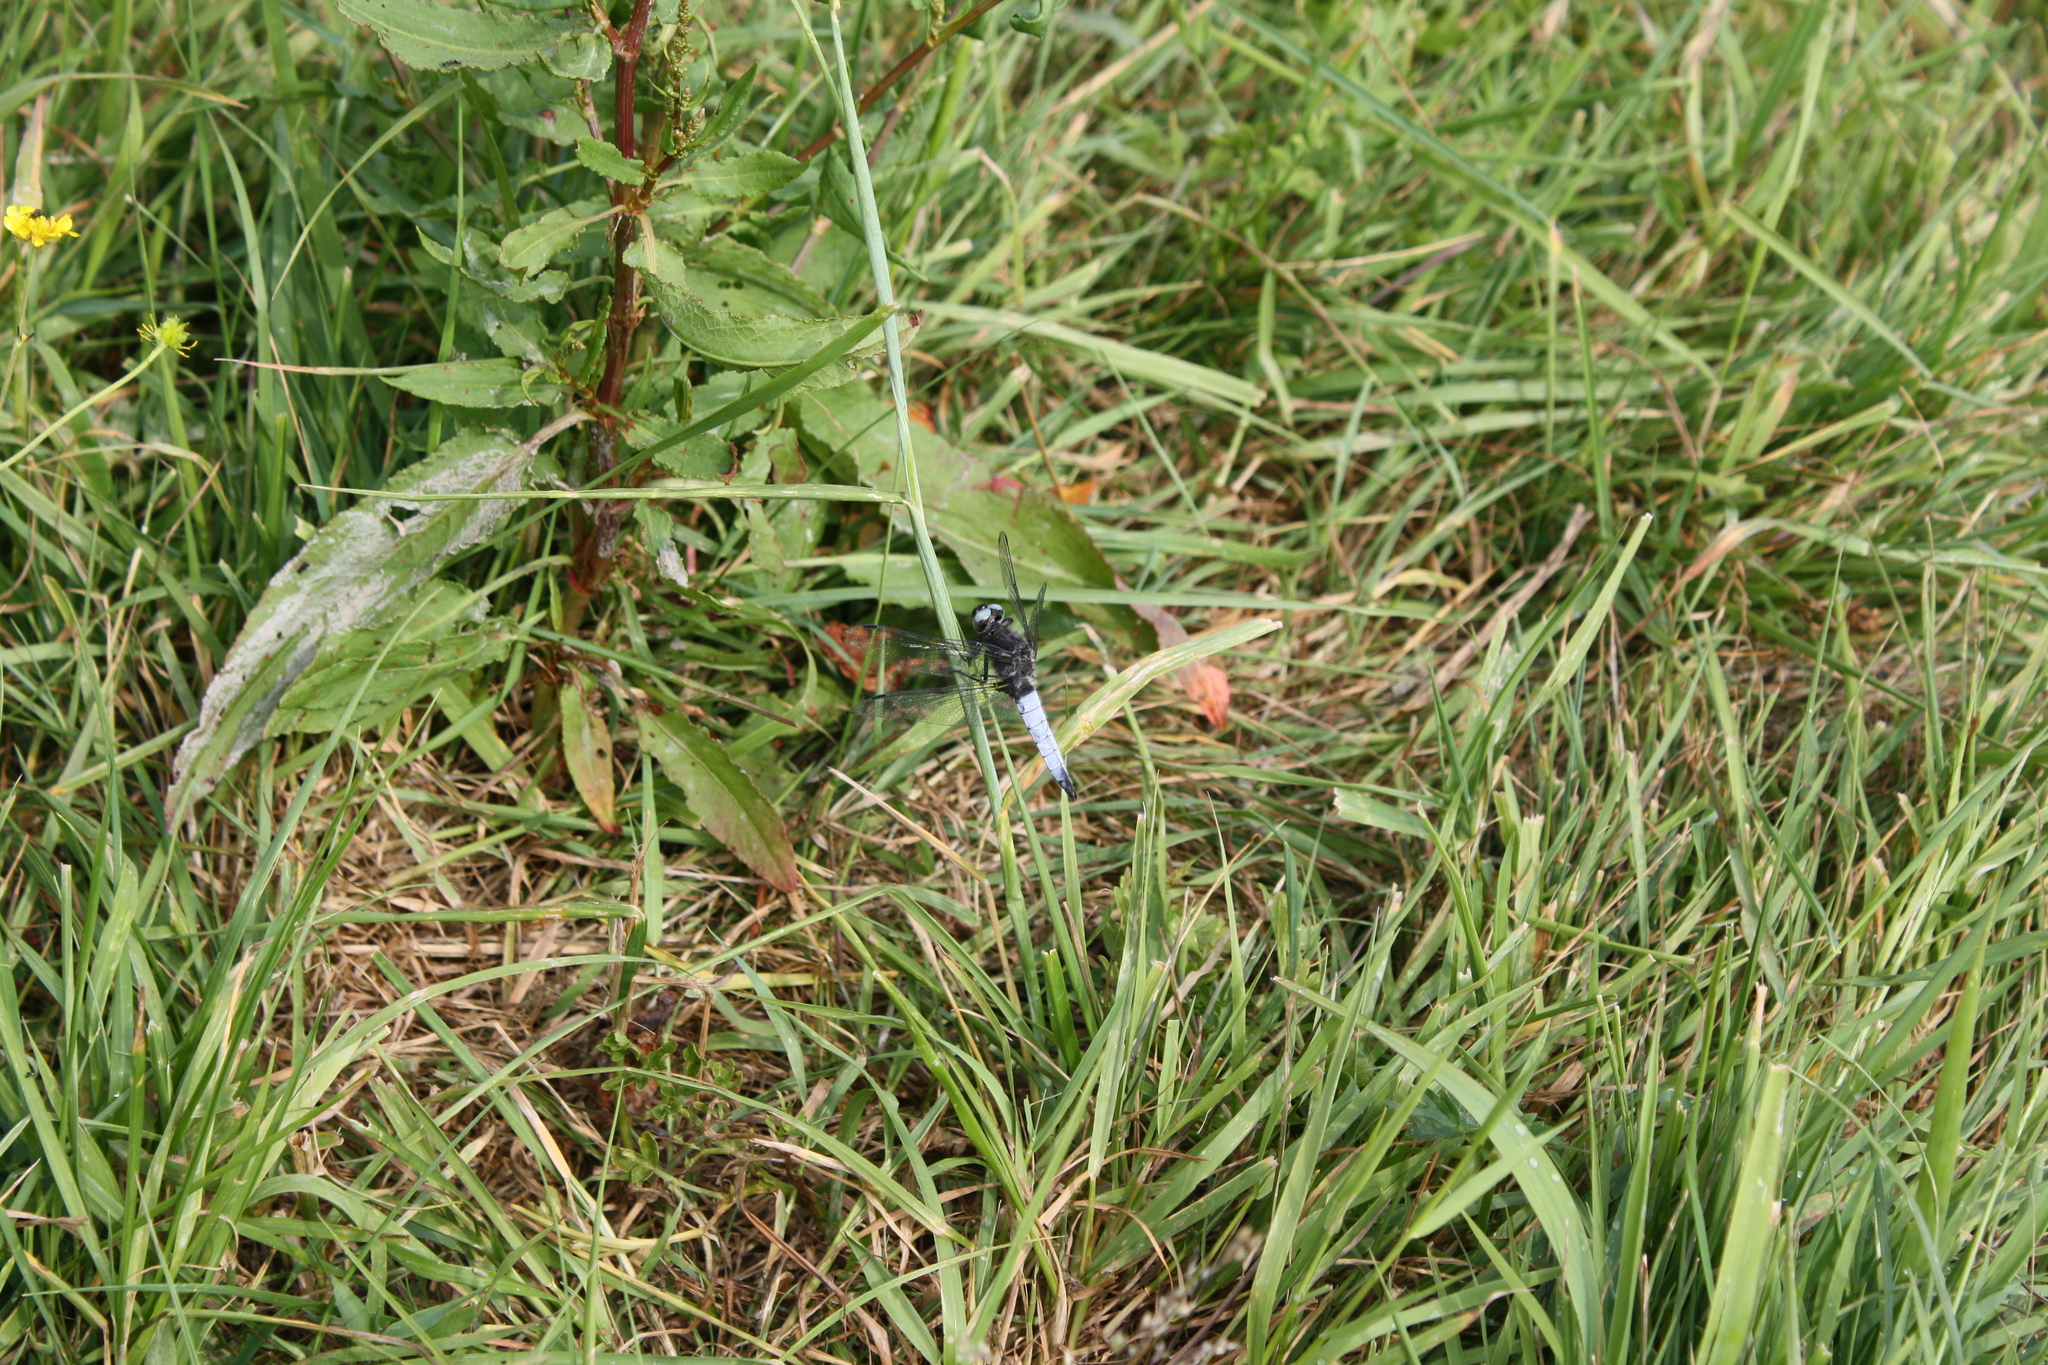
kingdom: Animalia
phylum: Arthropoda
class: Insecta
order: Odonata
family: Libellulidae
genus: Libellula
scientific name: Libellula fulva
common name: Blue chaser
